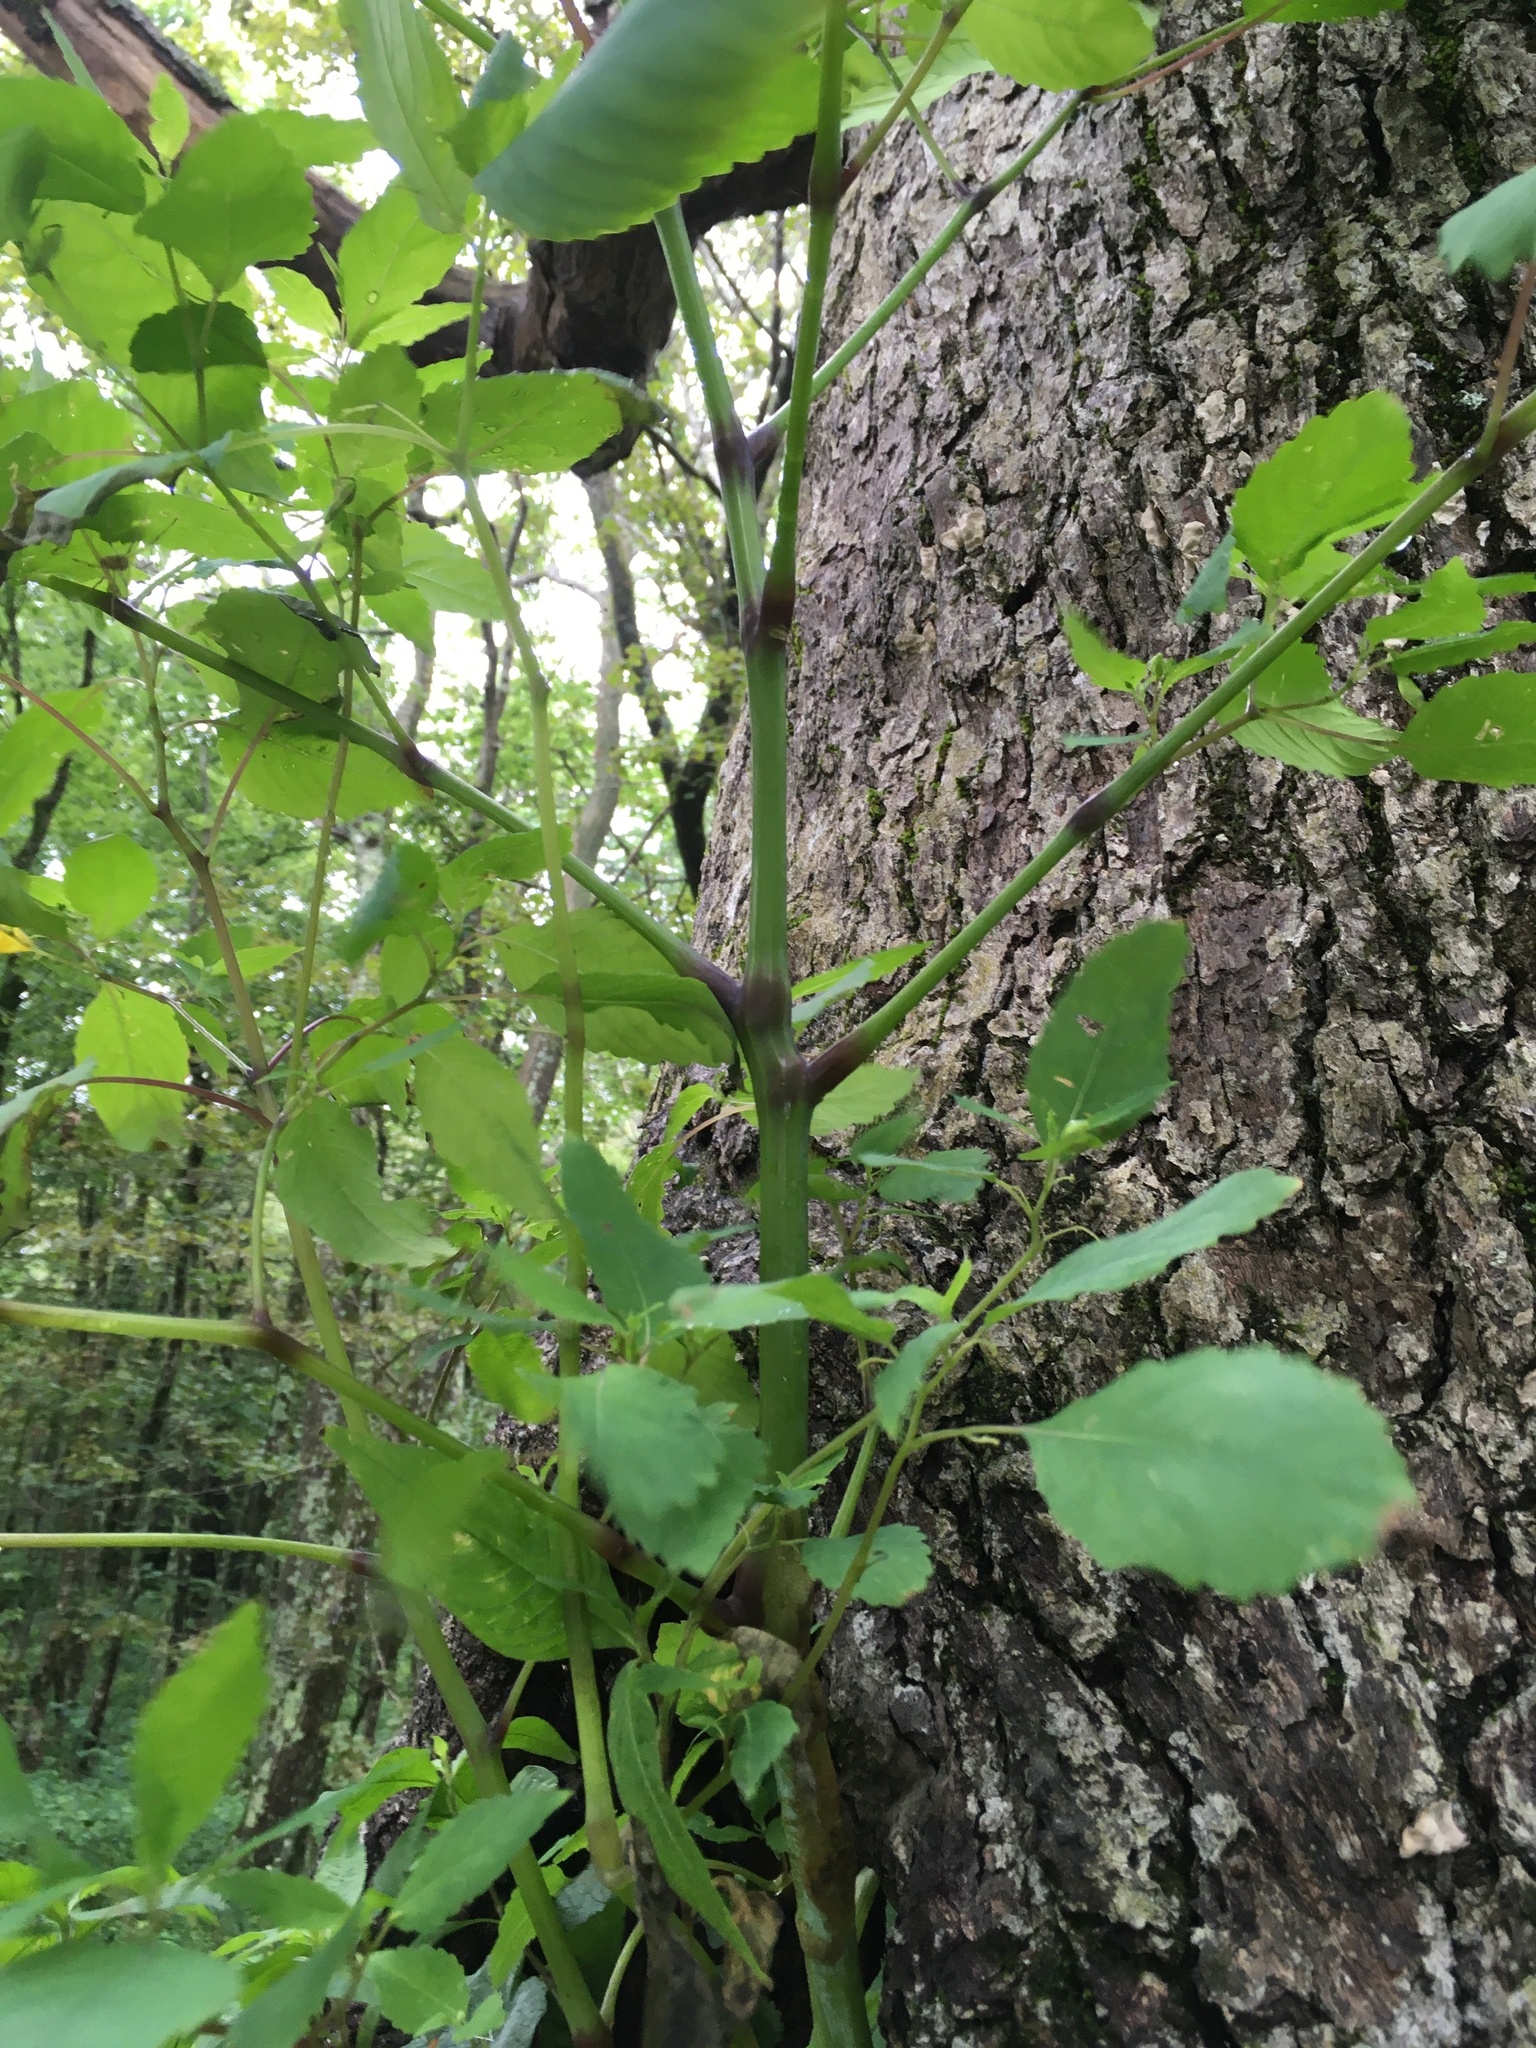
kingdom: Plantae
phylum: Tracheophyta
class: Magnoliopsida
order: Ericales
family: Balsaminaceae
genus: Impatiens
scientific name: Impatiens pallida
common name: Pale snapweed
